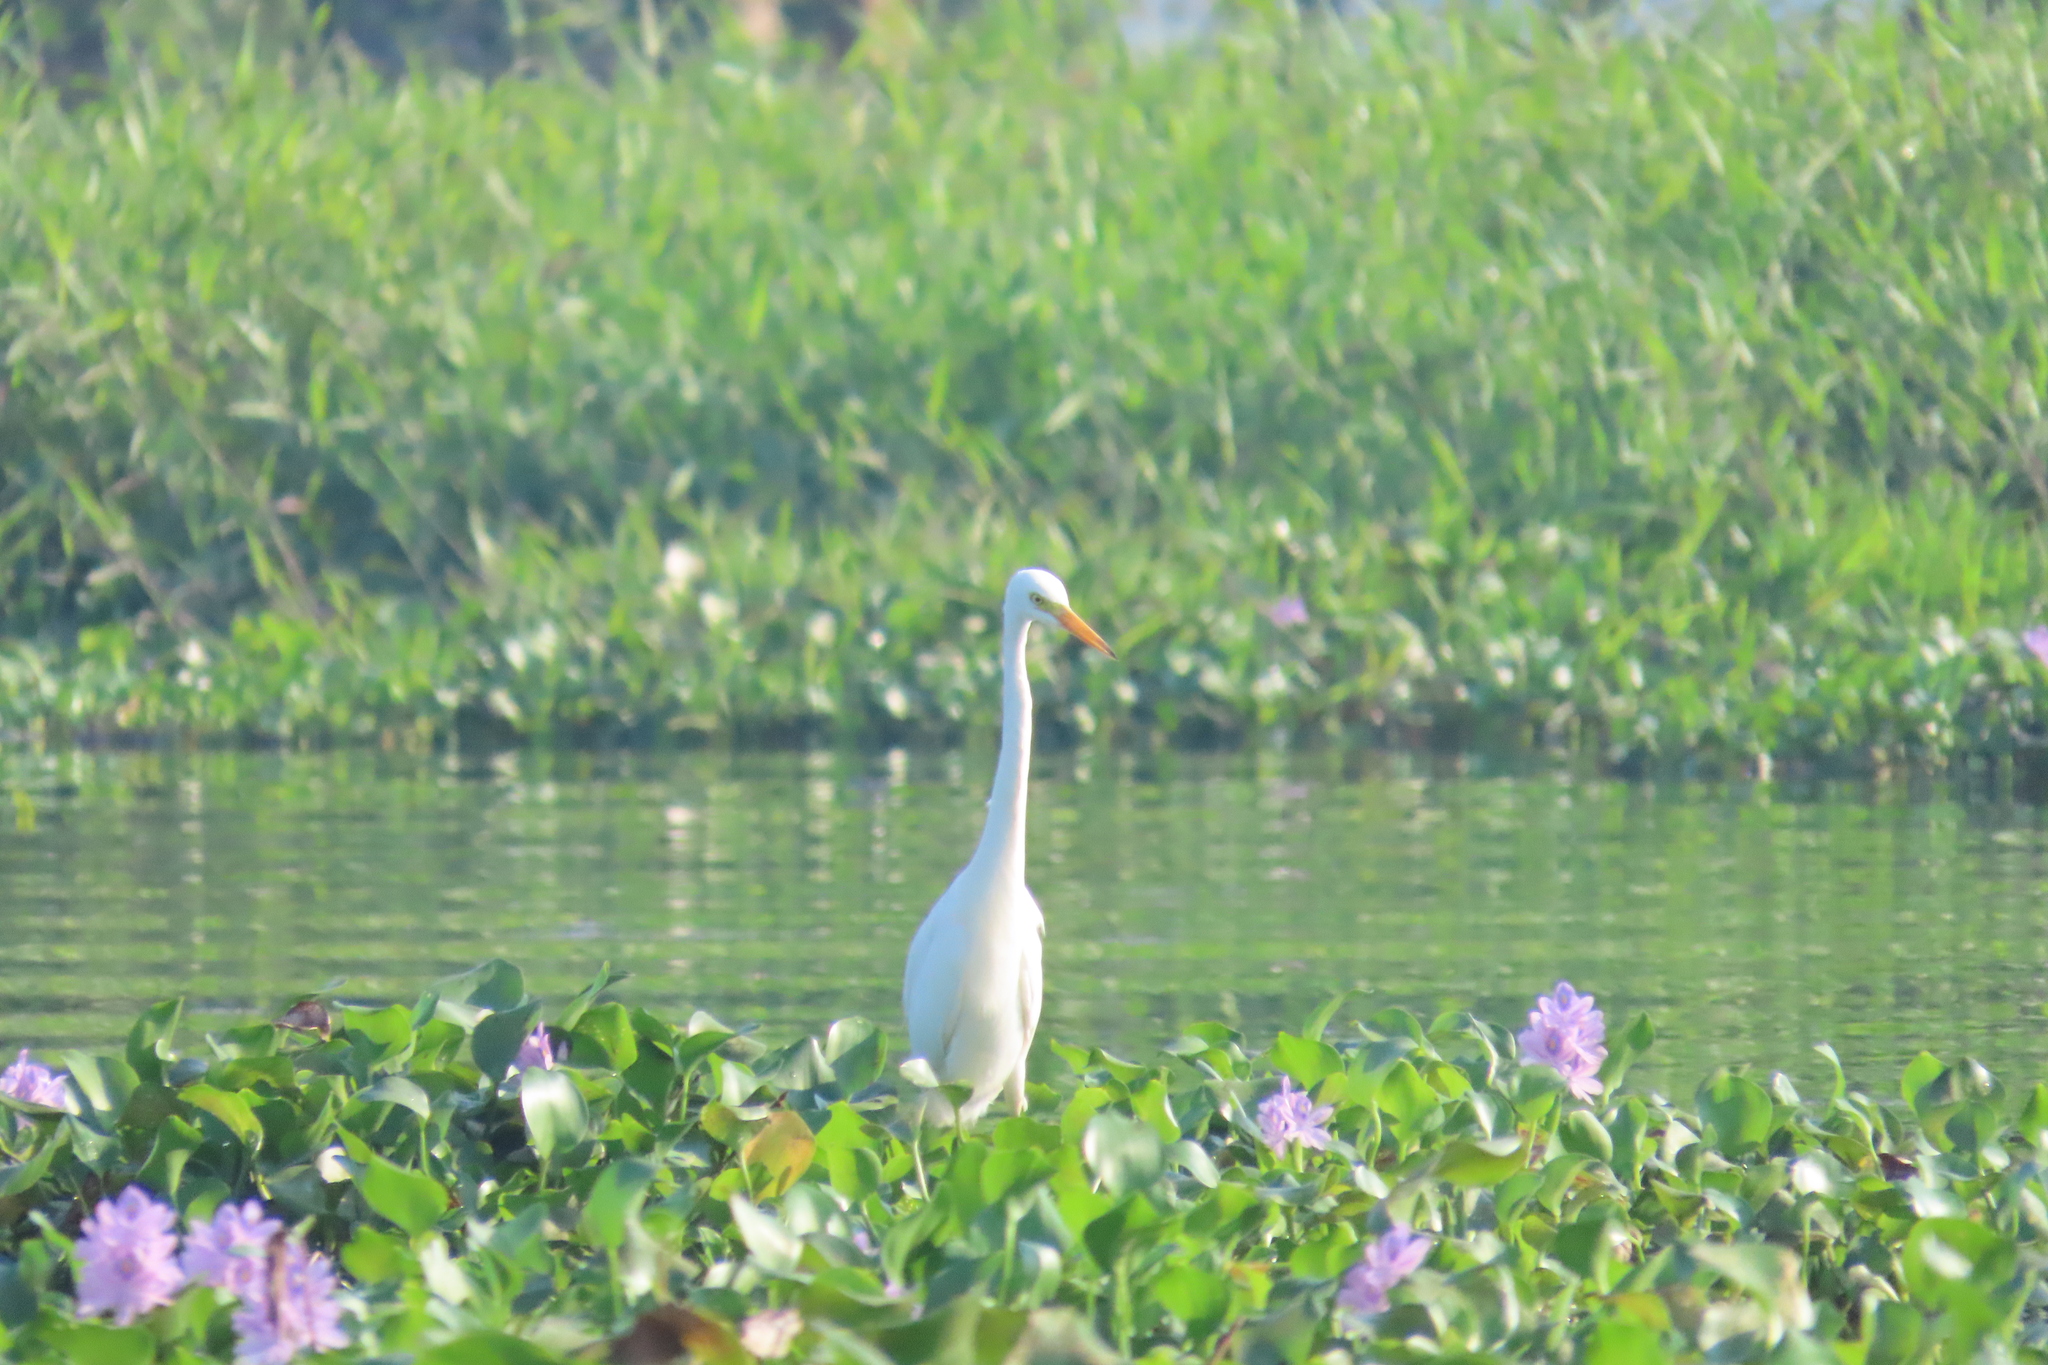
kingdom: Animalia
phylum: Chordata
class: Aves
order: Pelecaniformes
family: Ardeidae
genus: Egretta
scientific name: Egretta intermedia
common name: Intermediate egret
